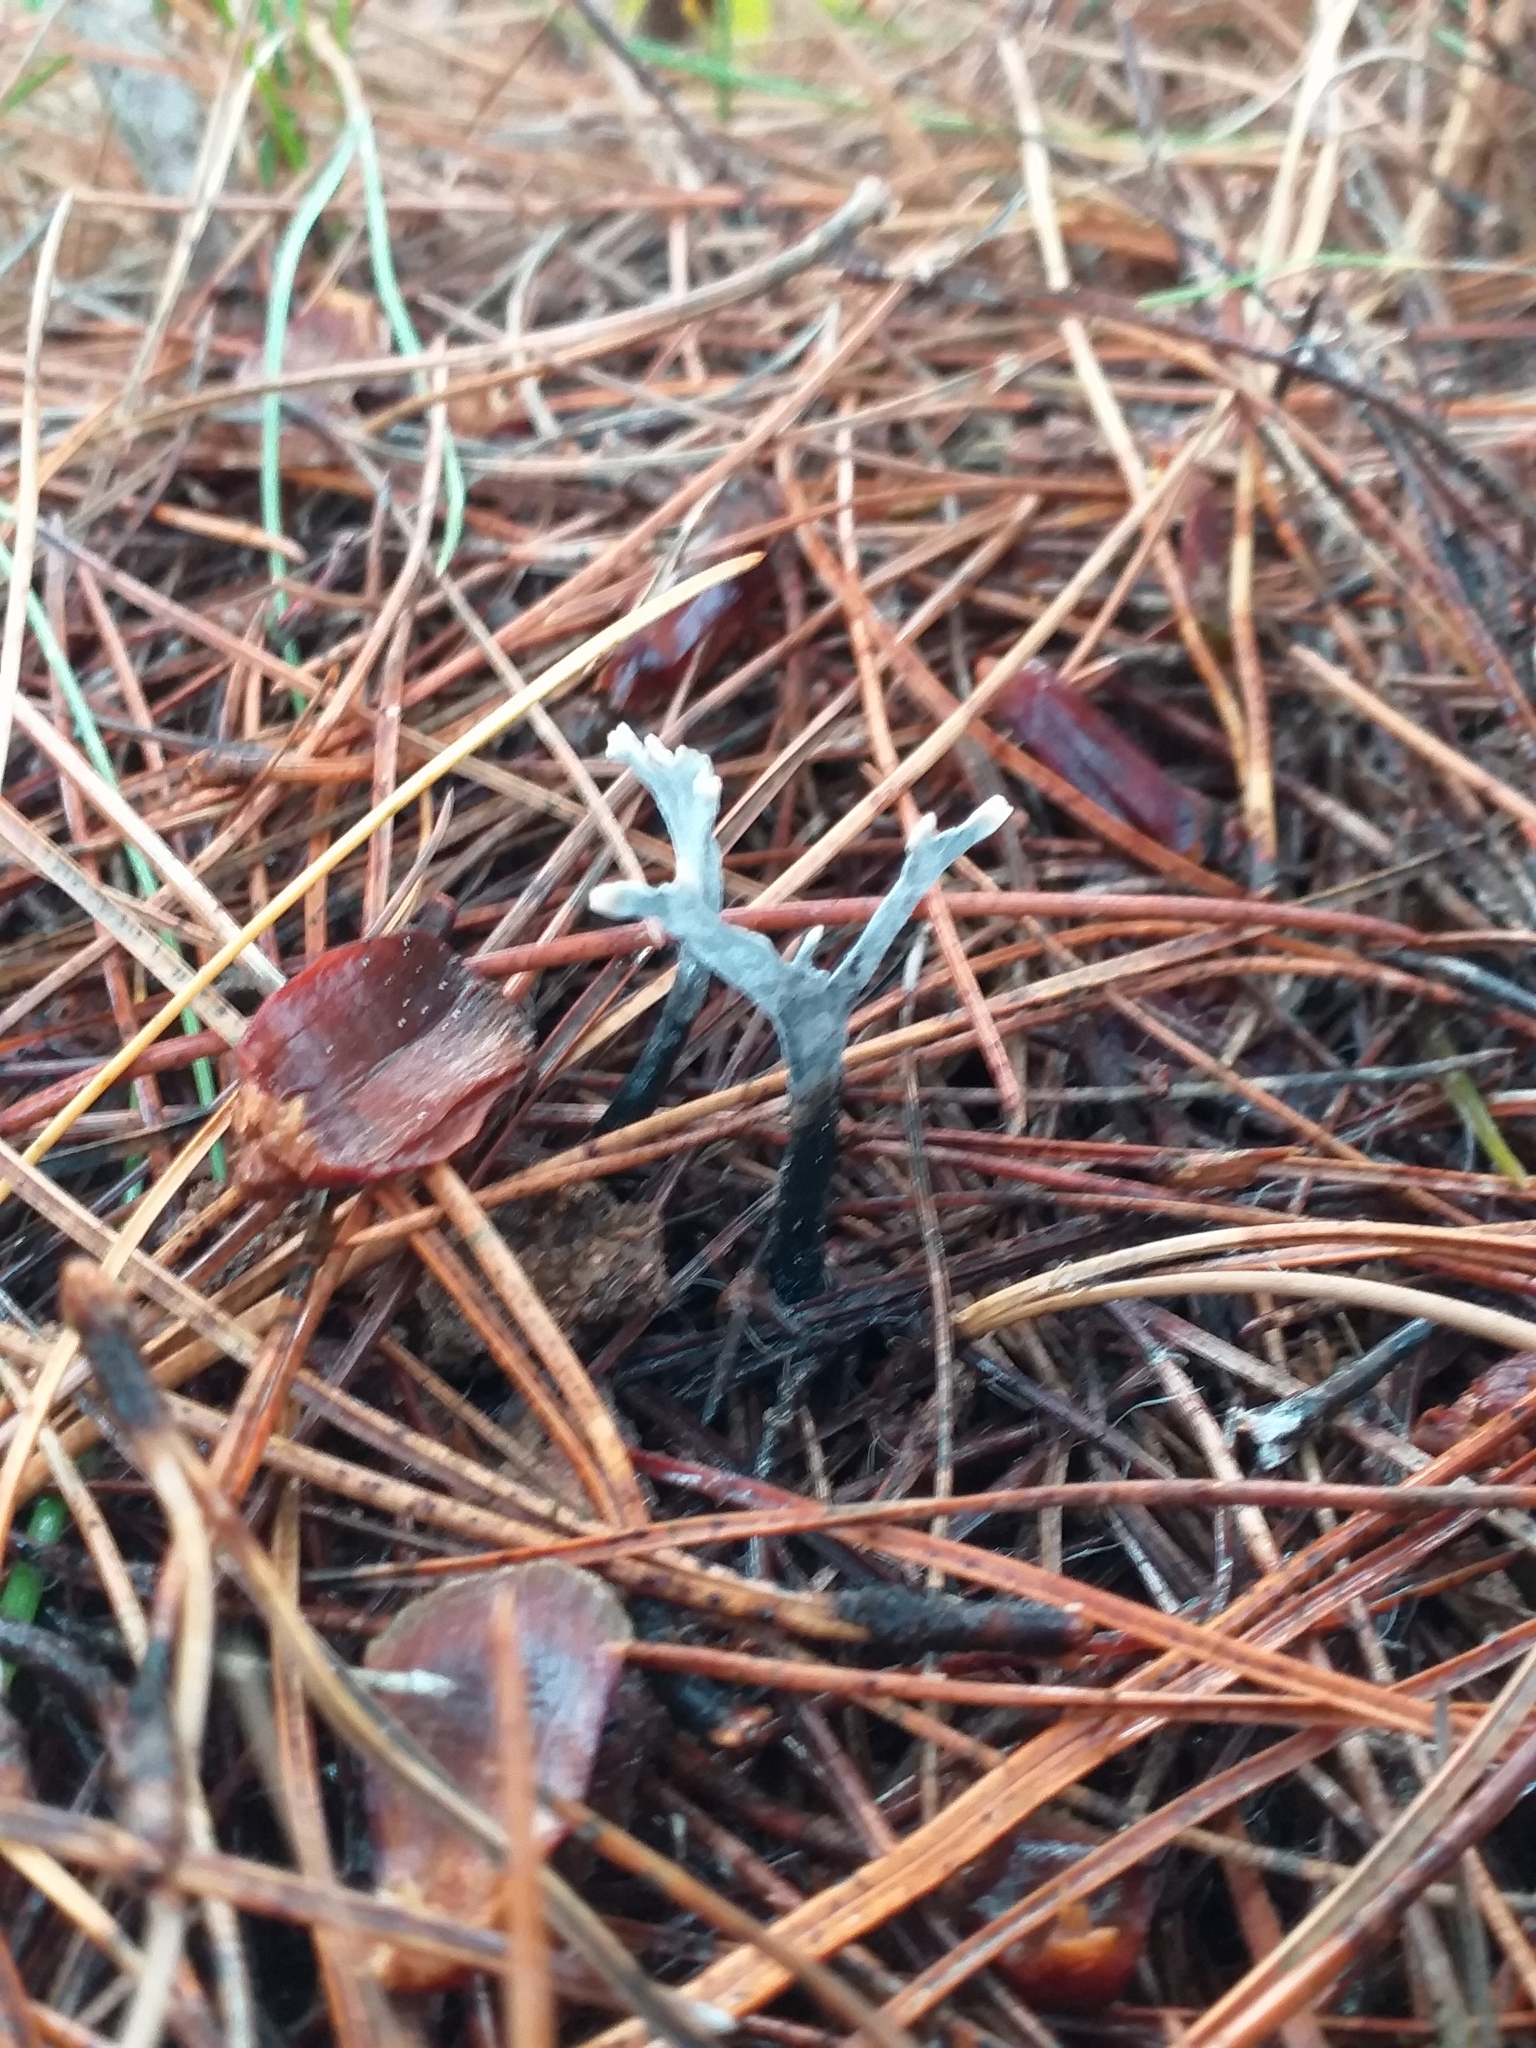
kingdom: Fungi
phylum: Ascomycota
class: Sordariomycetes
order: Xylariales
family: Xylariaceae
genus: Xylaria
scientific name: Xylaria hypoxylon
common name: Candle-snuff fungus
